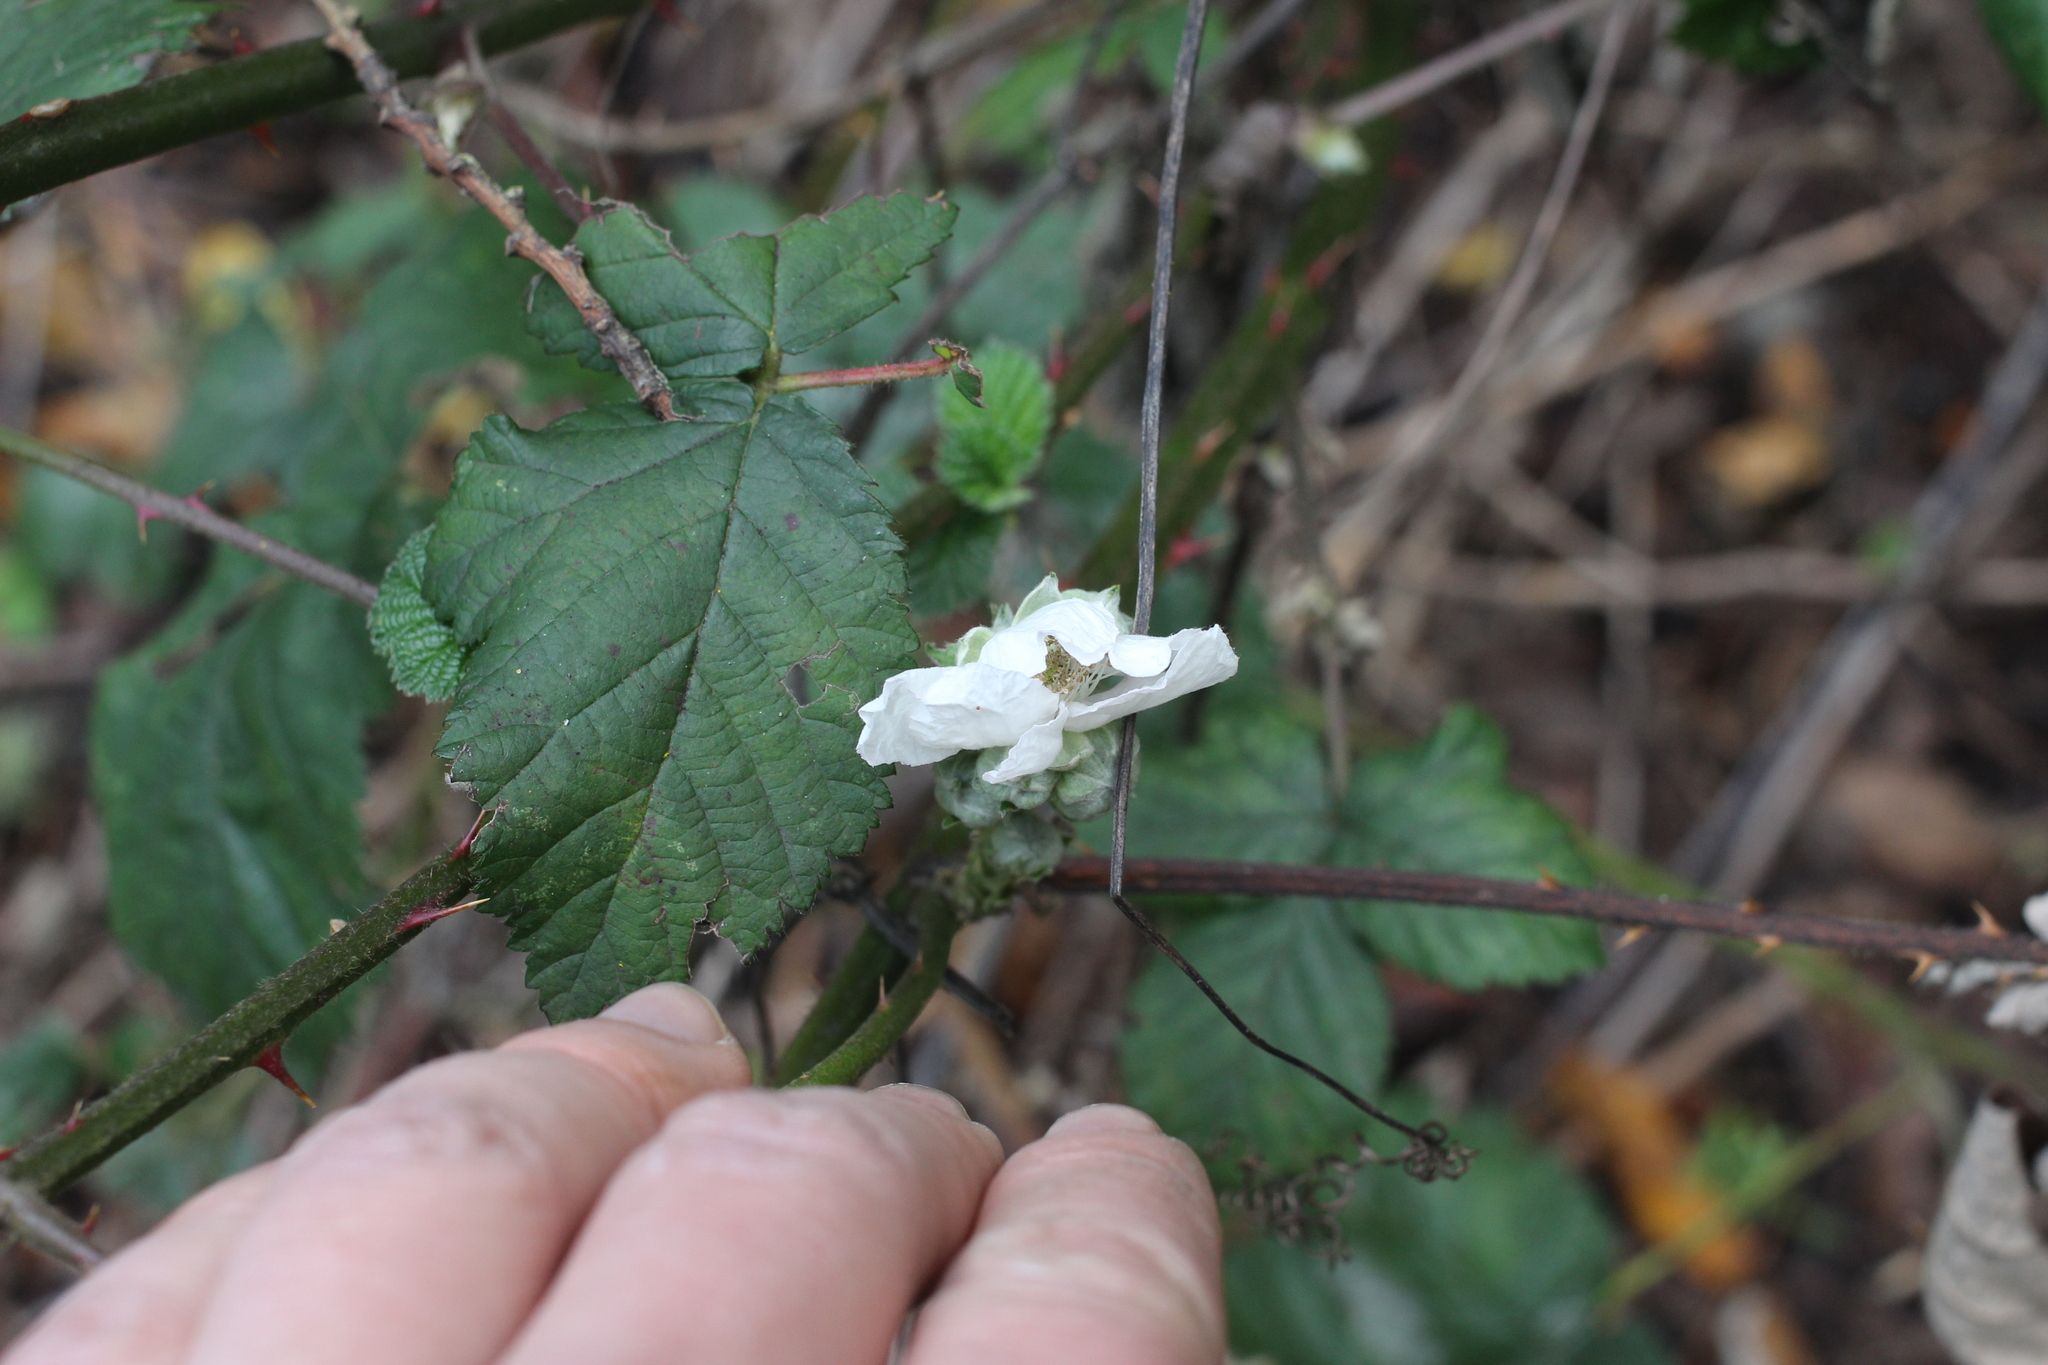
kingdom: Plantae
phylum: Tracheophyta
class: Magnoliopsida
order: Rosales
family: Rosaceae
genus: Rubus
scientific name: Rubus ursinus
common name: Pacific blackberry
